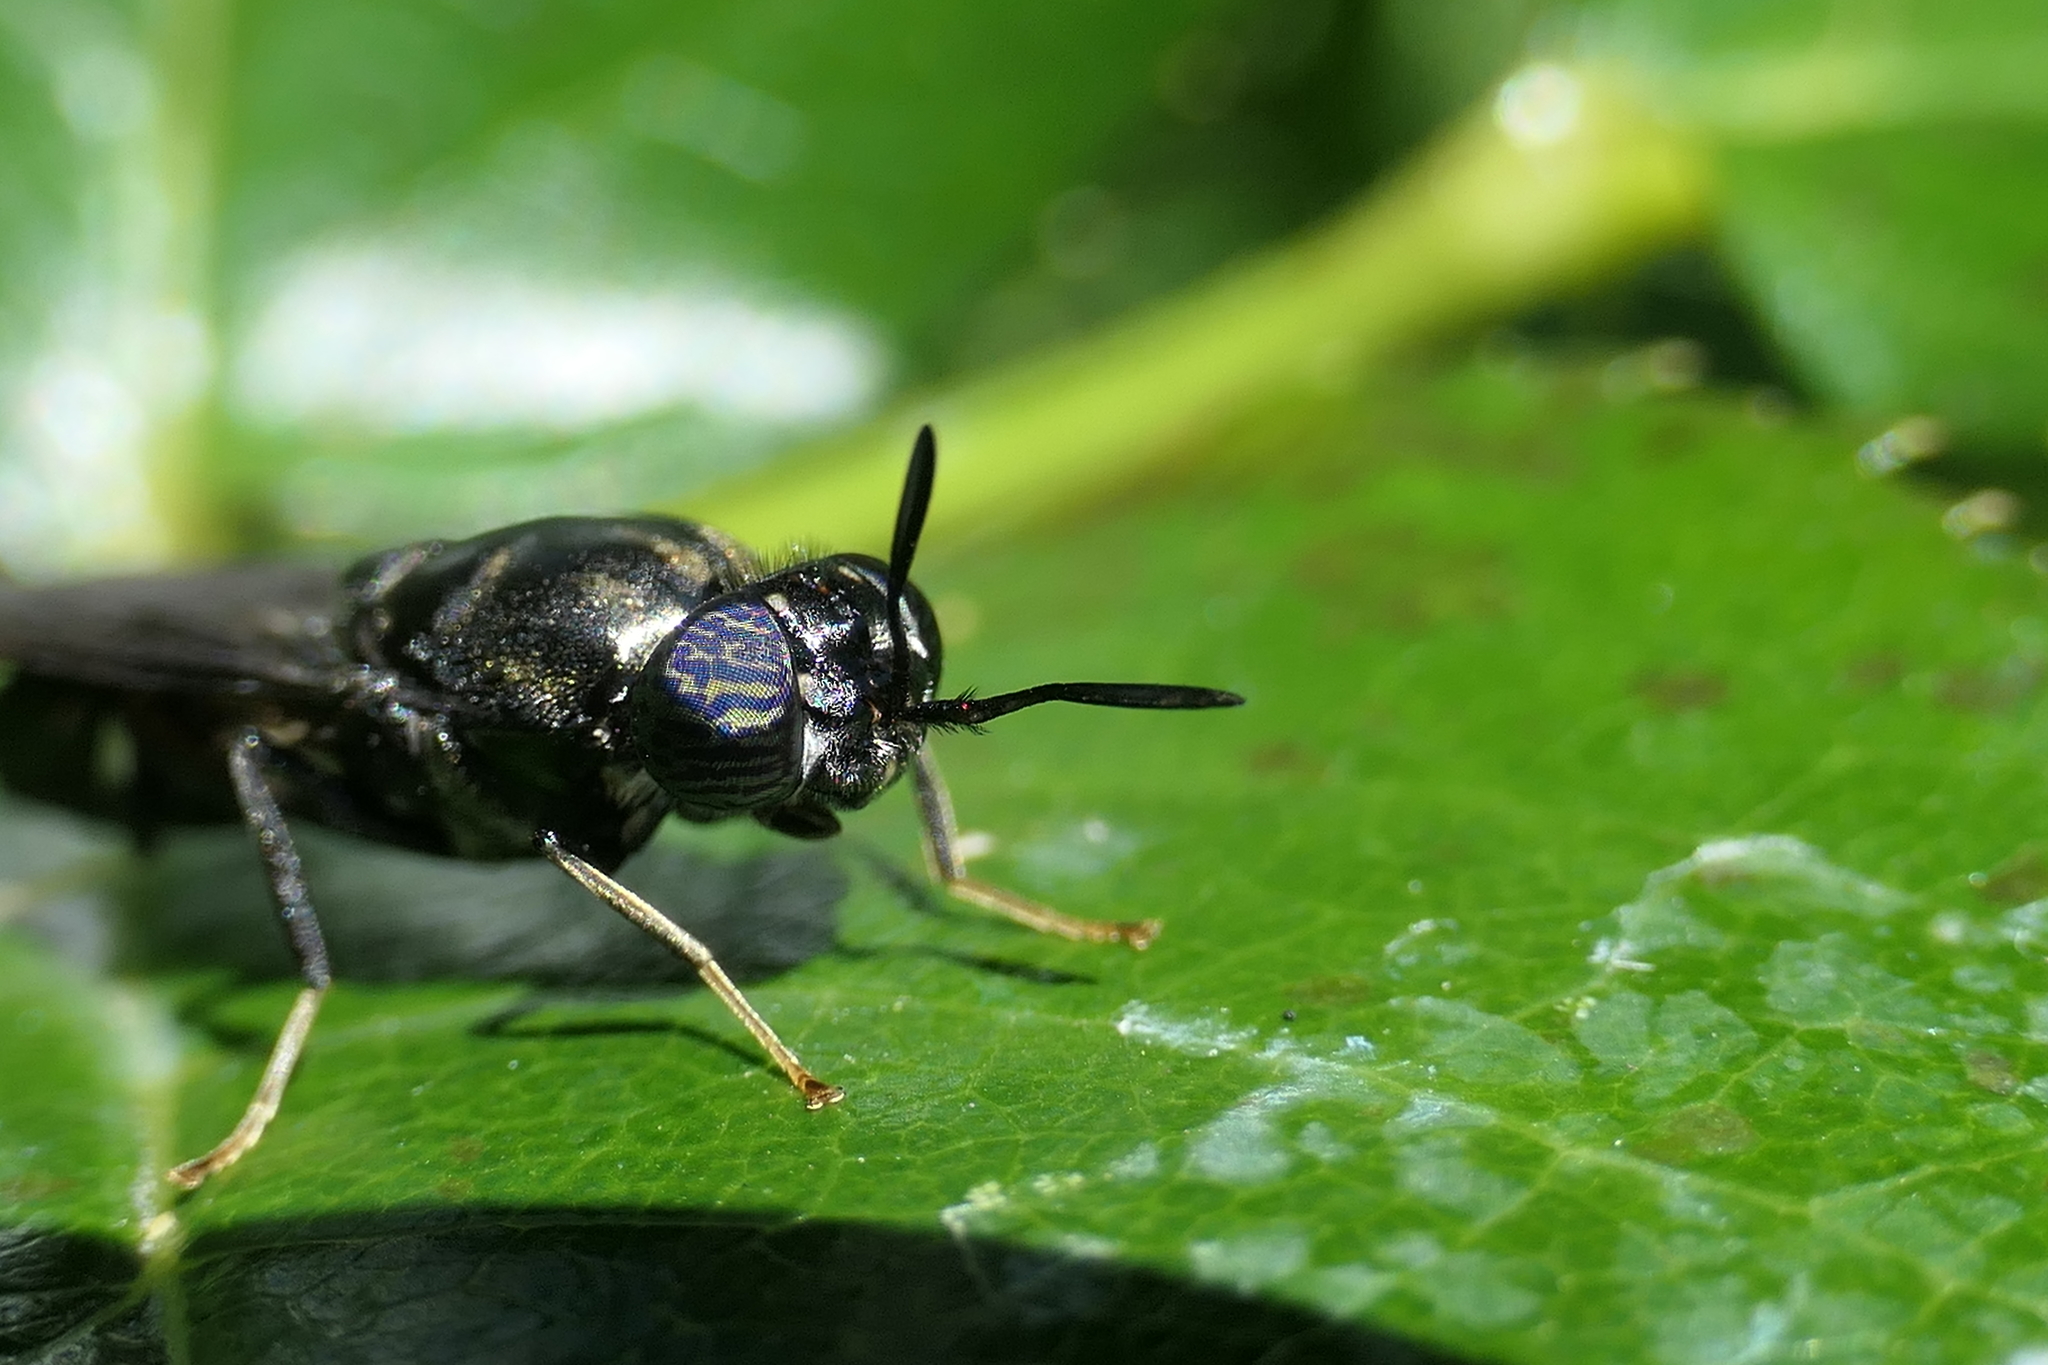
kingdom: Animalia
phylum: Arthropoda
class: Insecta
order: Diptera
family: Stratiomyidae
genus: Hermetia
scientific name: Hermetia illucens
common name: Black soldier fly
